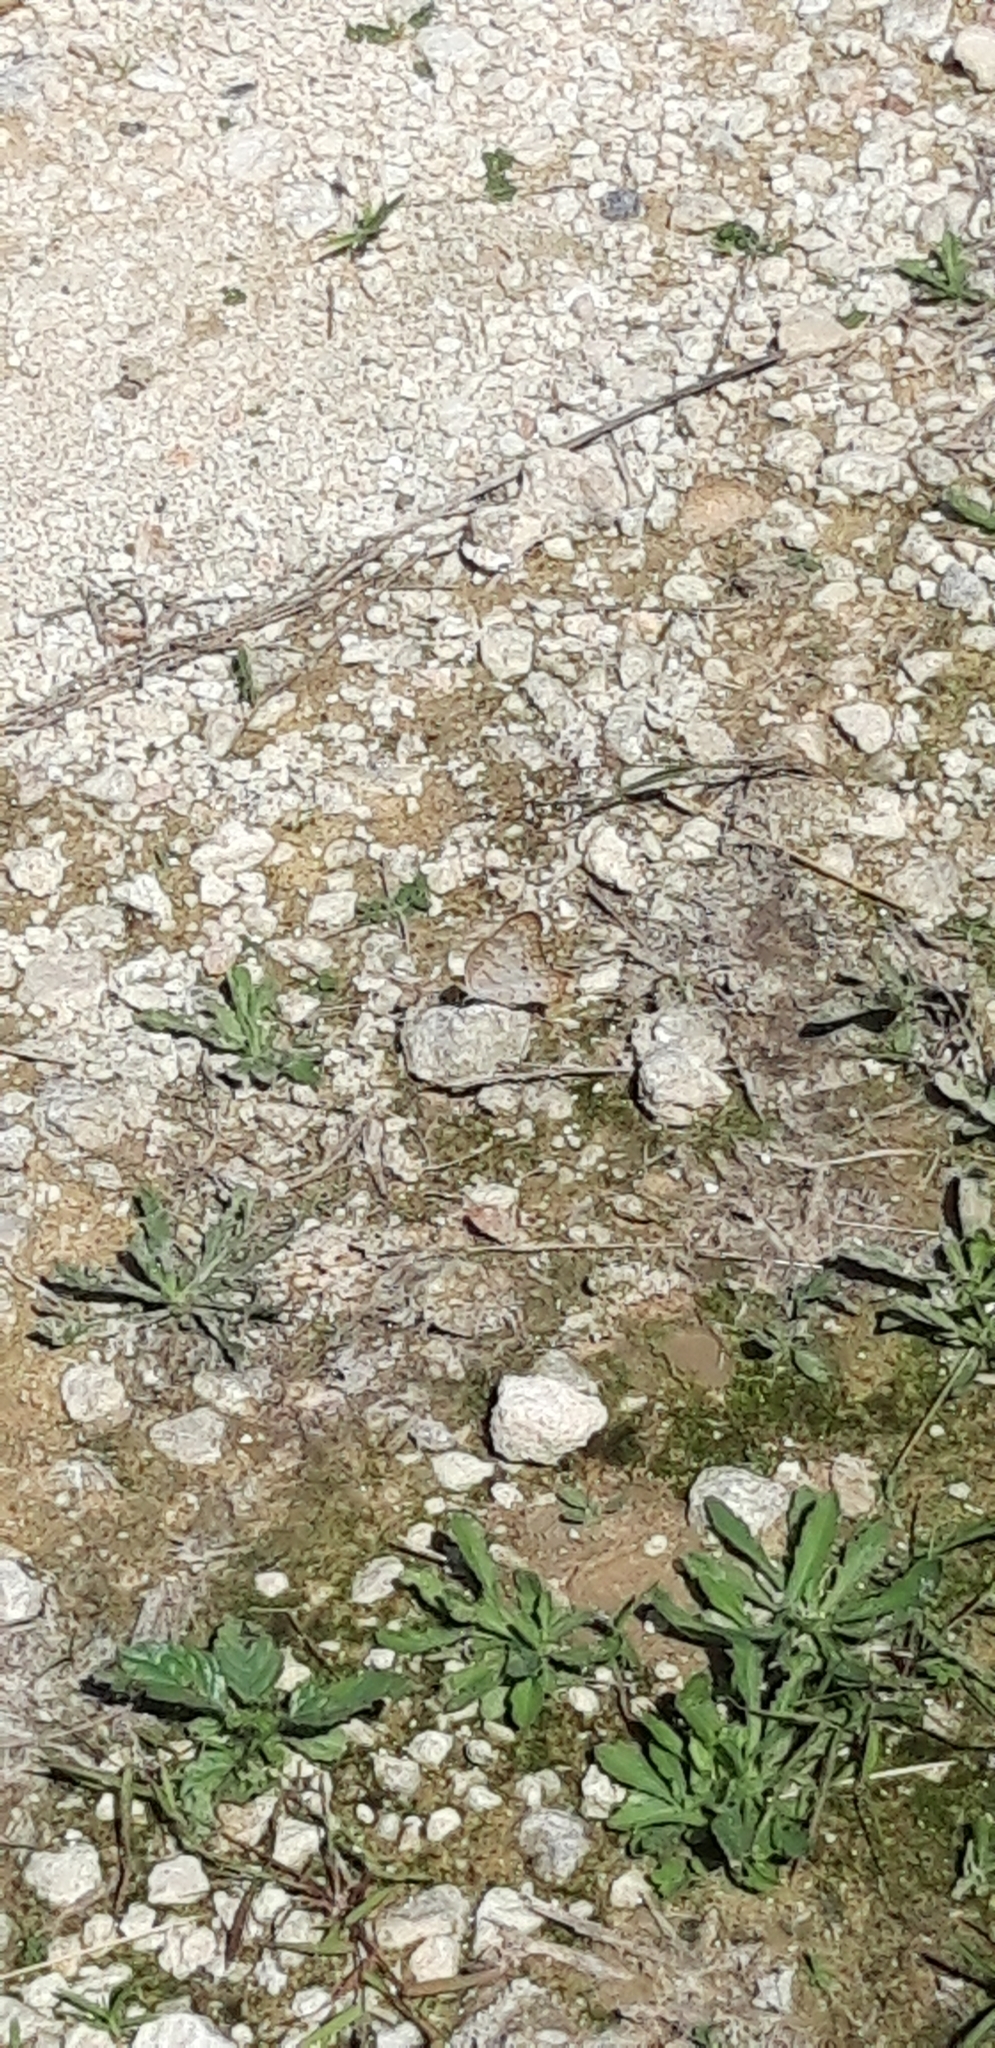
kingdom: Animalia
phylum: Arthropoda
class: Insecta
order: Lepidoptera
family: Nymphalidae
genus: Anartia
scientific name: Anartia jatrophae
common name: White peacock
